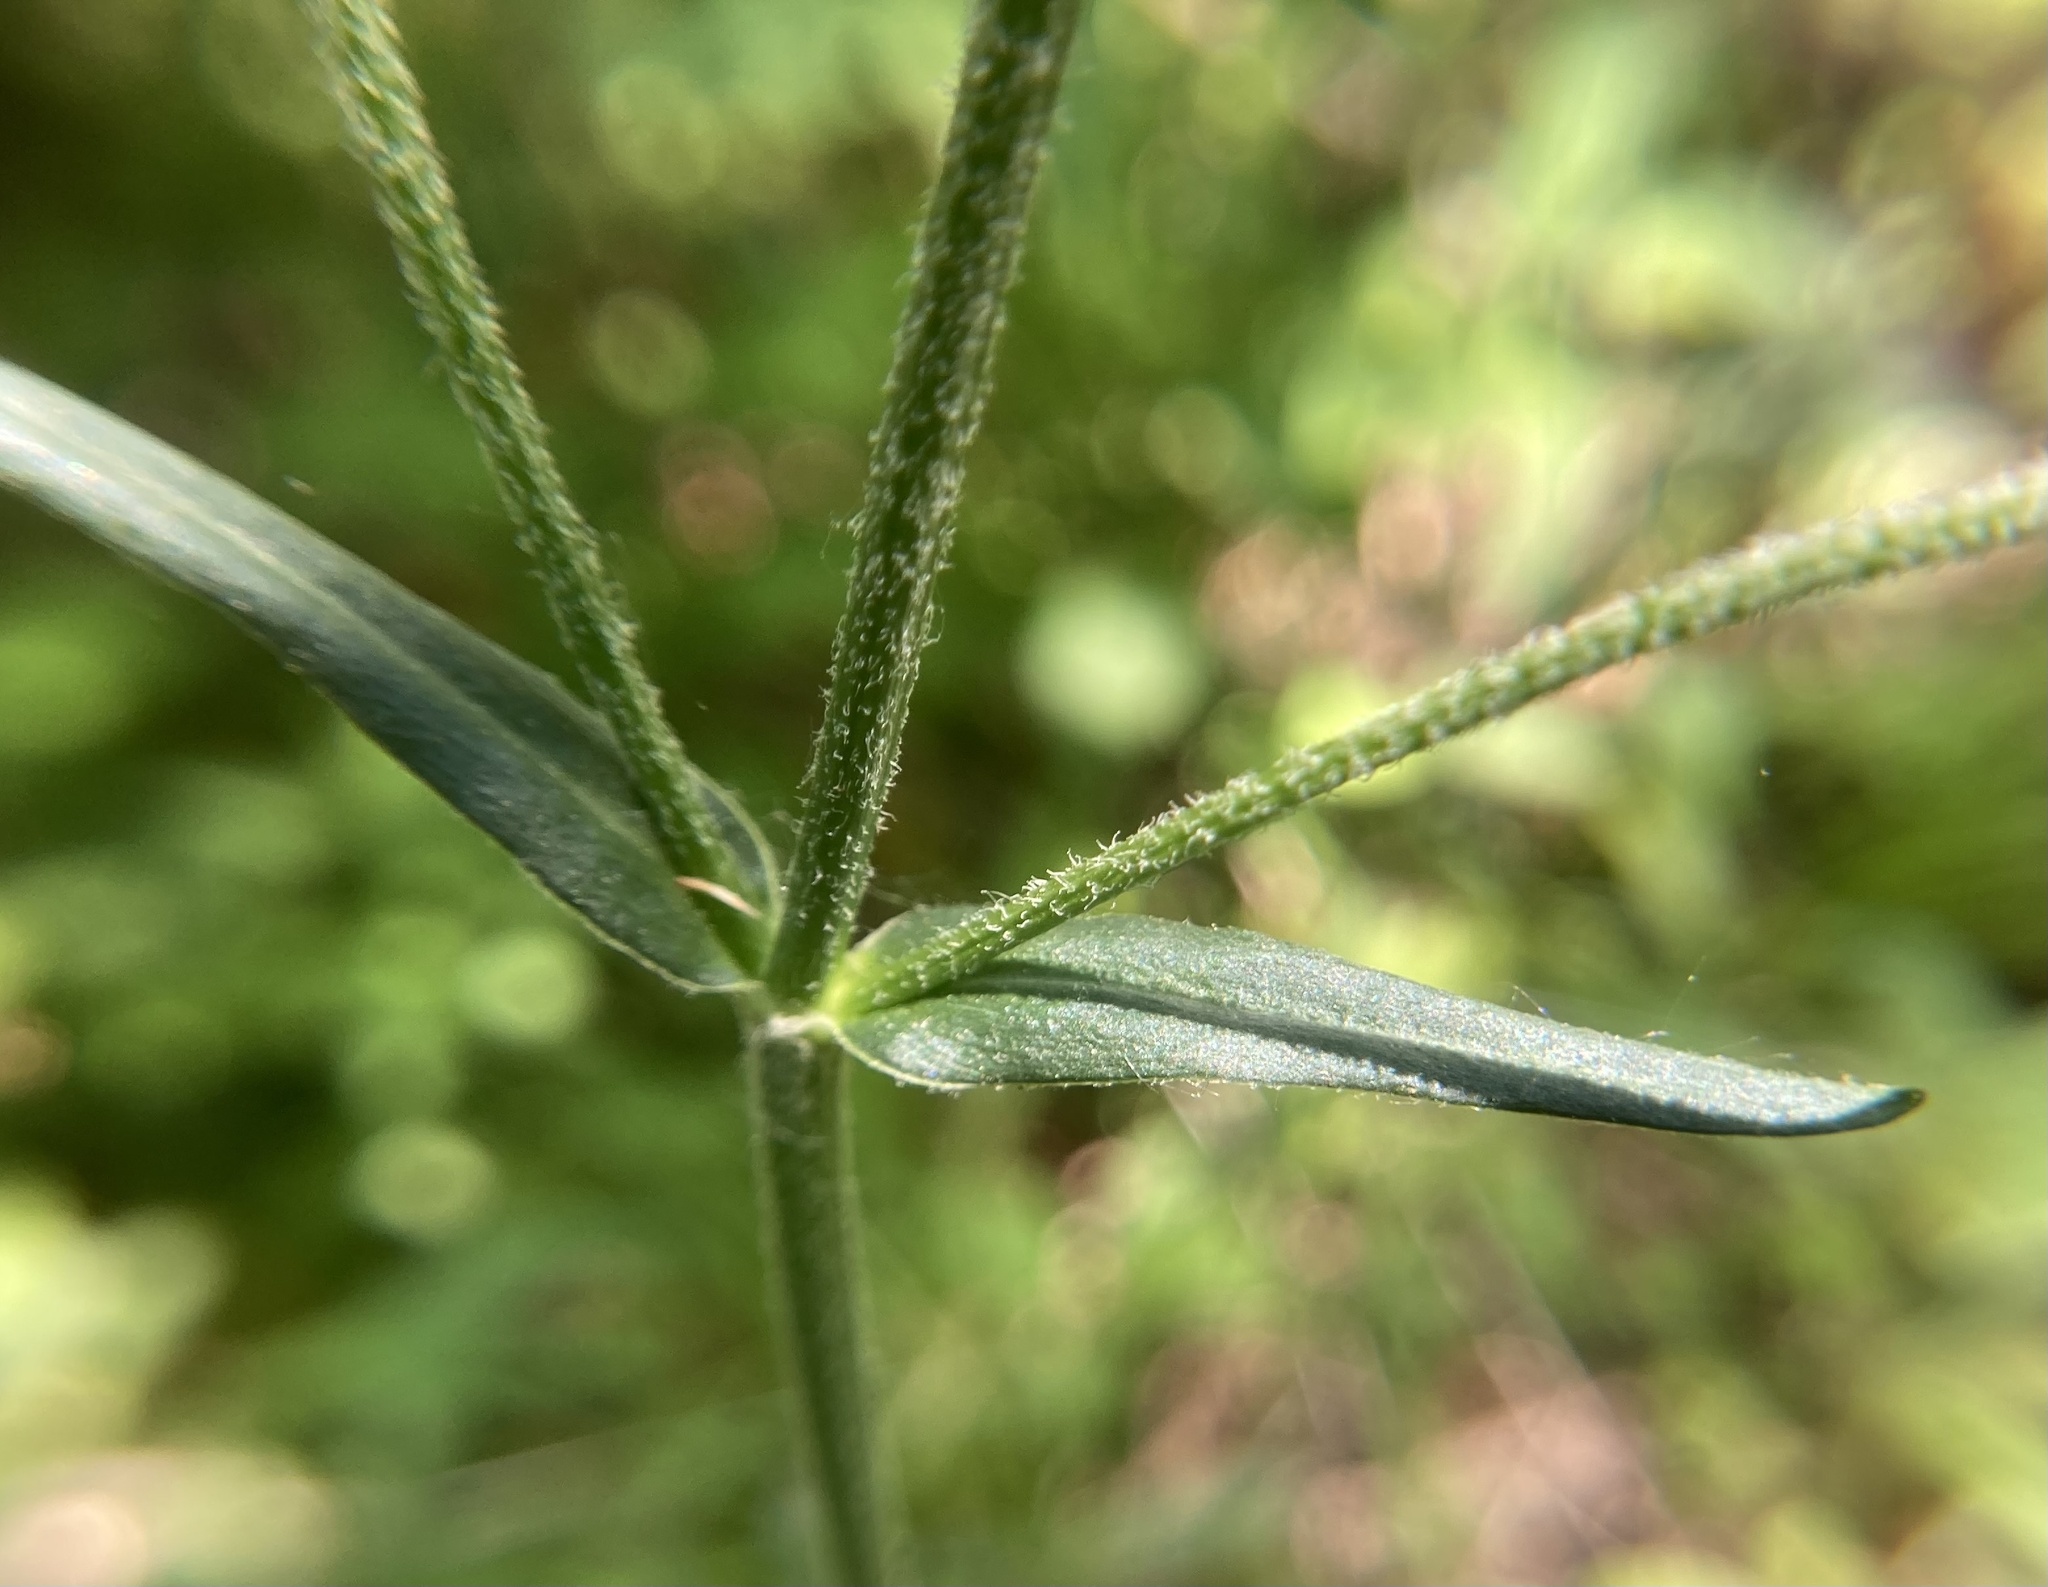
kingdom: Plantae
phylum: Tracheophyta
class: Magnoliopsida
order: Caryophyllales
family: Caryophyllaceae
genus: Silene
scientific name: Silene flos-cuculi
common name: Ragged-robin
